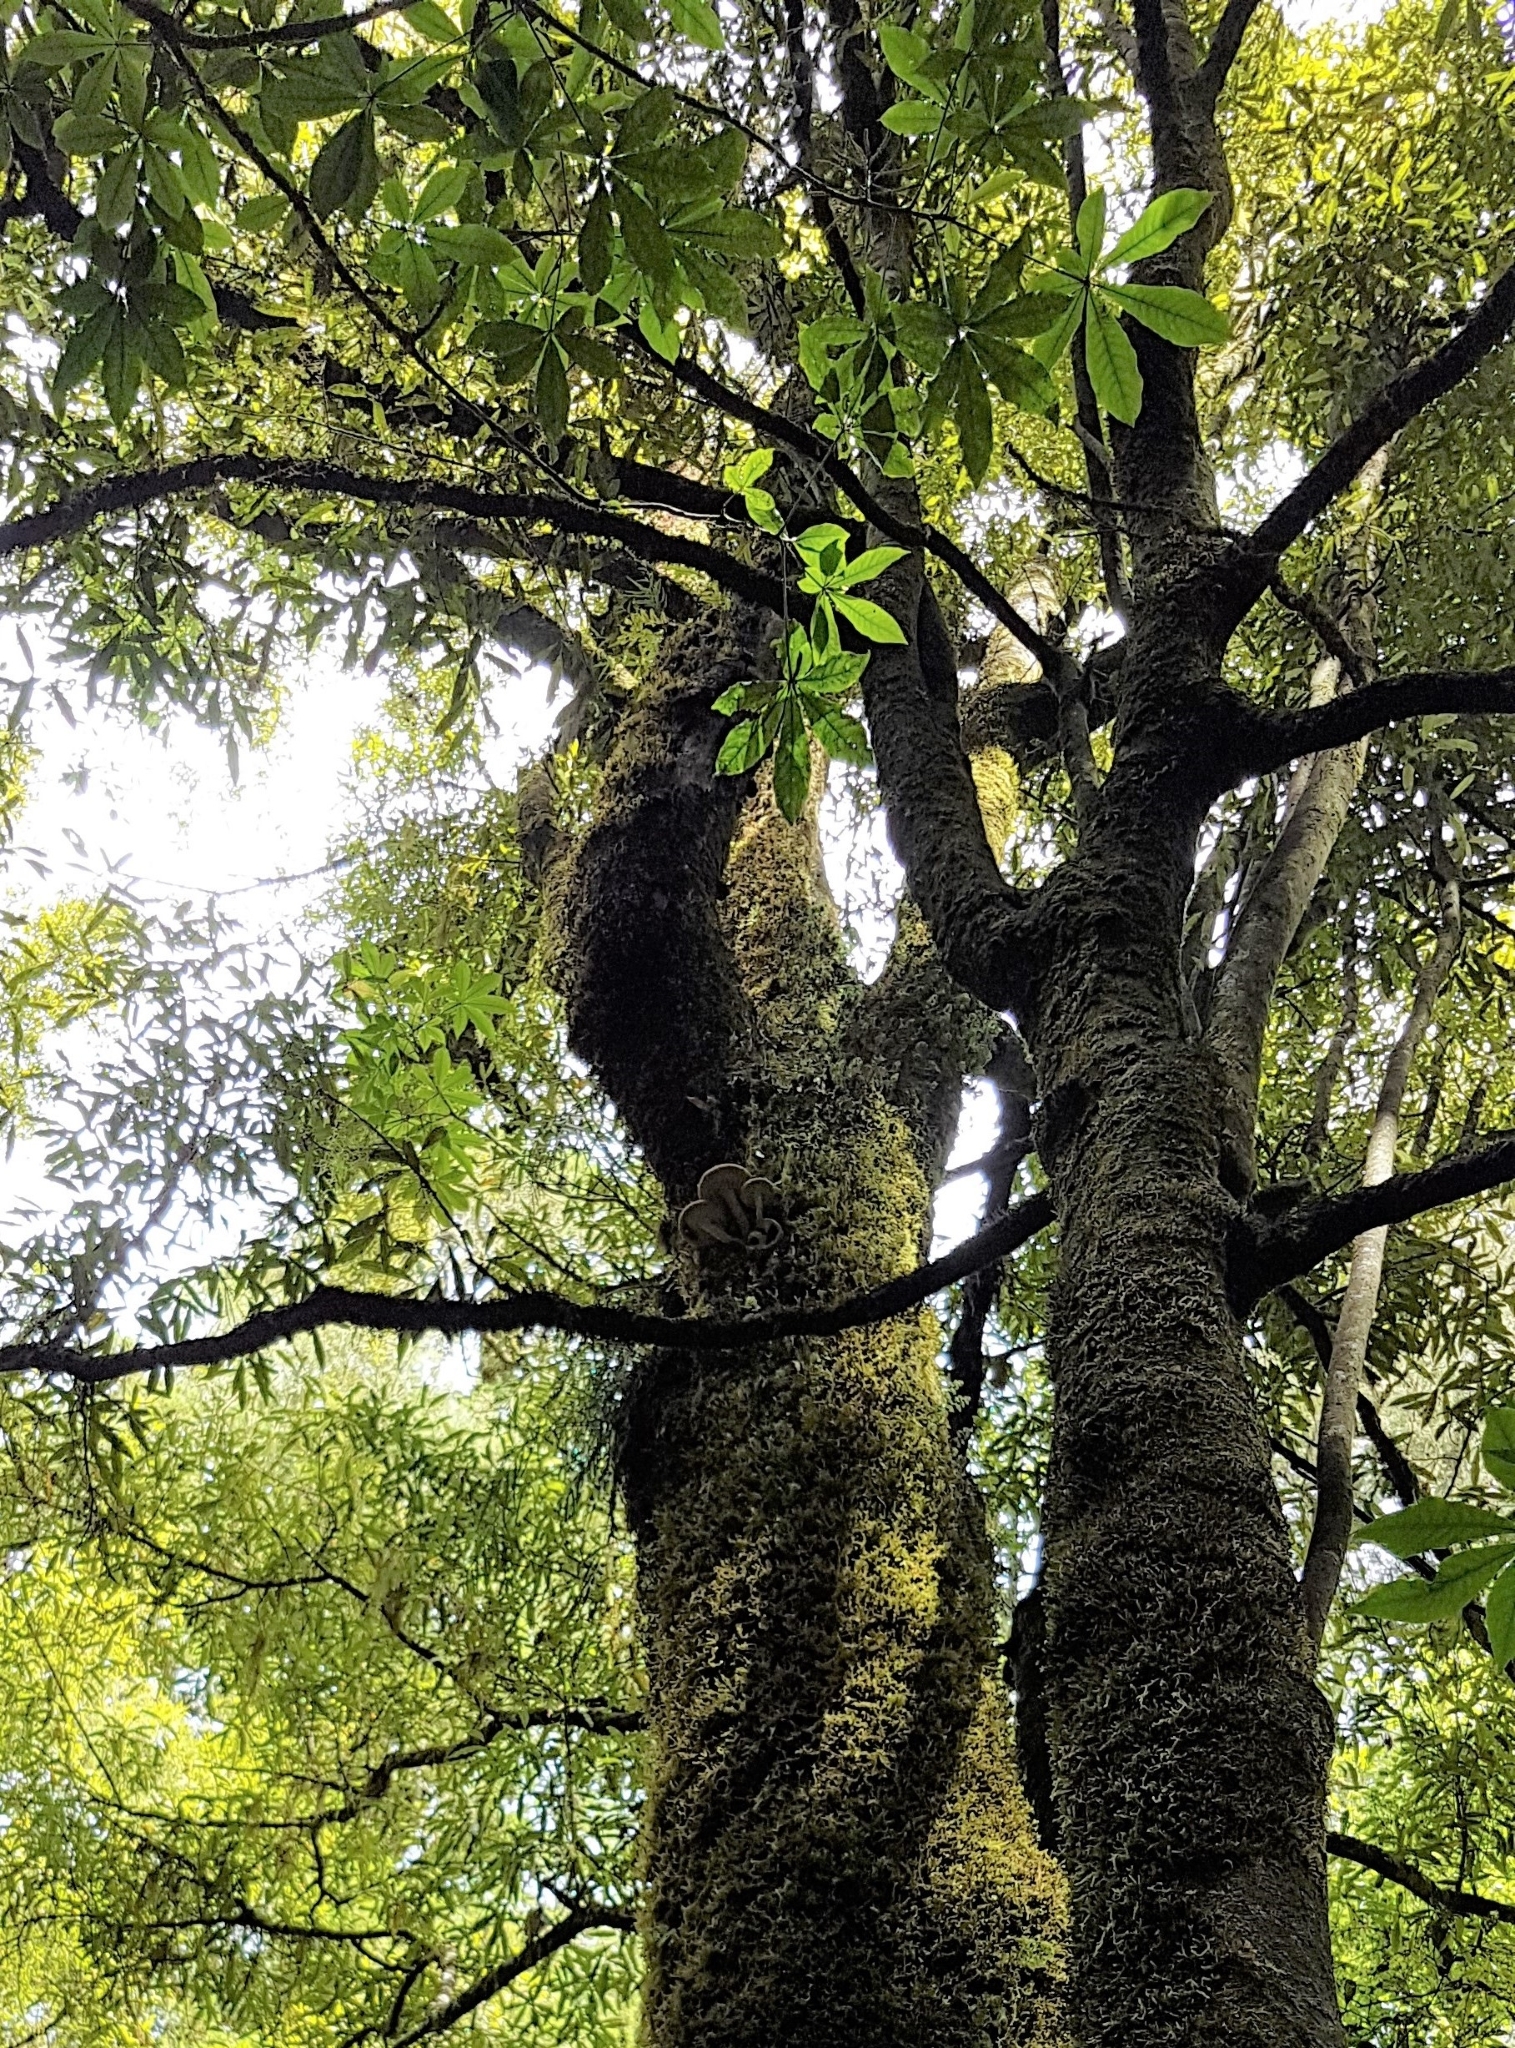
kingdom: Fungi
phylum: Basidiomycota
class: Agaricomycetes
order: Agaricales
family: Tubariaceae
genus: Cyclocybe
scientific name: Cyclocybe parasitica
